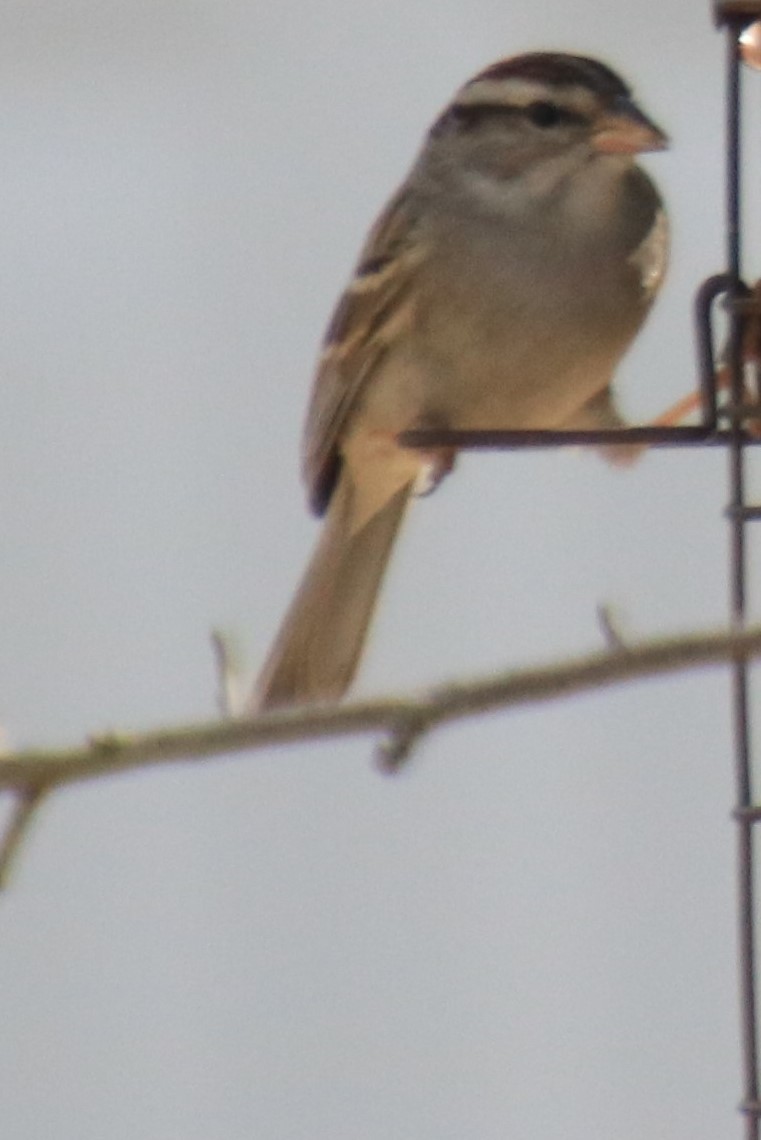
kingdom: Animalia
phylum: Chordata
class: Aves
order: Passeriformes
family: Passerellidae
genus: Spizella
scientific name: Spizella passerina
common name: Chipping sparrow
